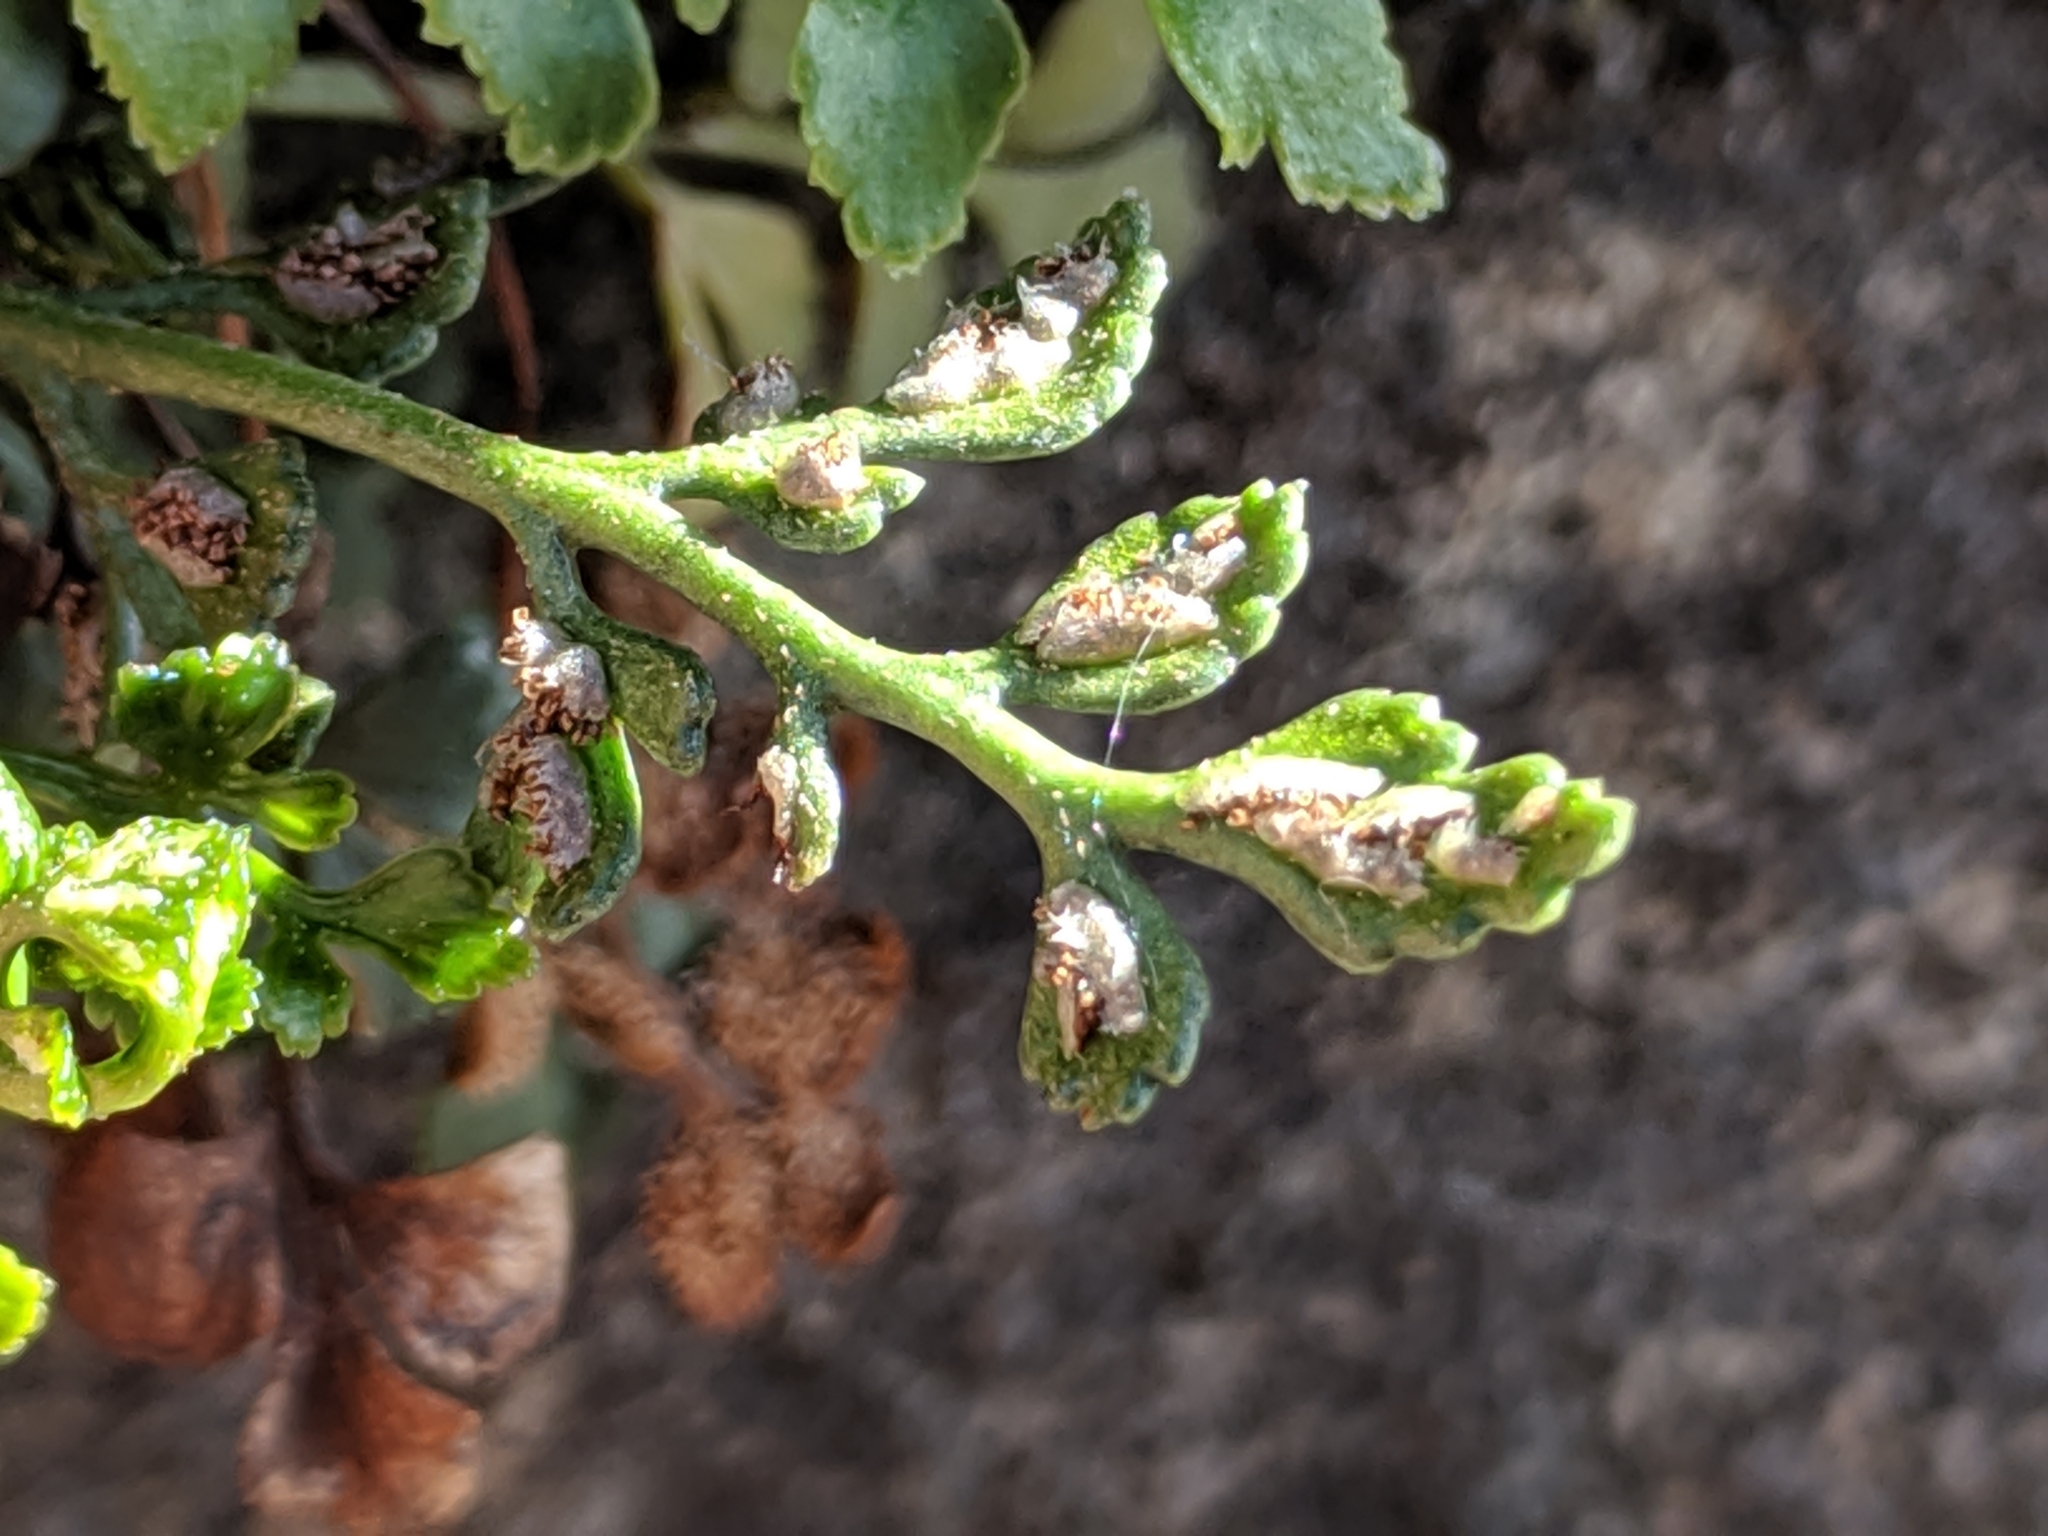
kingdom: Plantae
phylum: Tracheophyta
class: Polypodiopsida
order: Polypodiales
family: Aspleniaceae
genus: Asplenium
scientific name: Asplenium ruta-muraria
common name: Wall-rue
